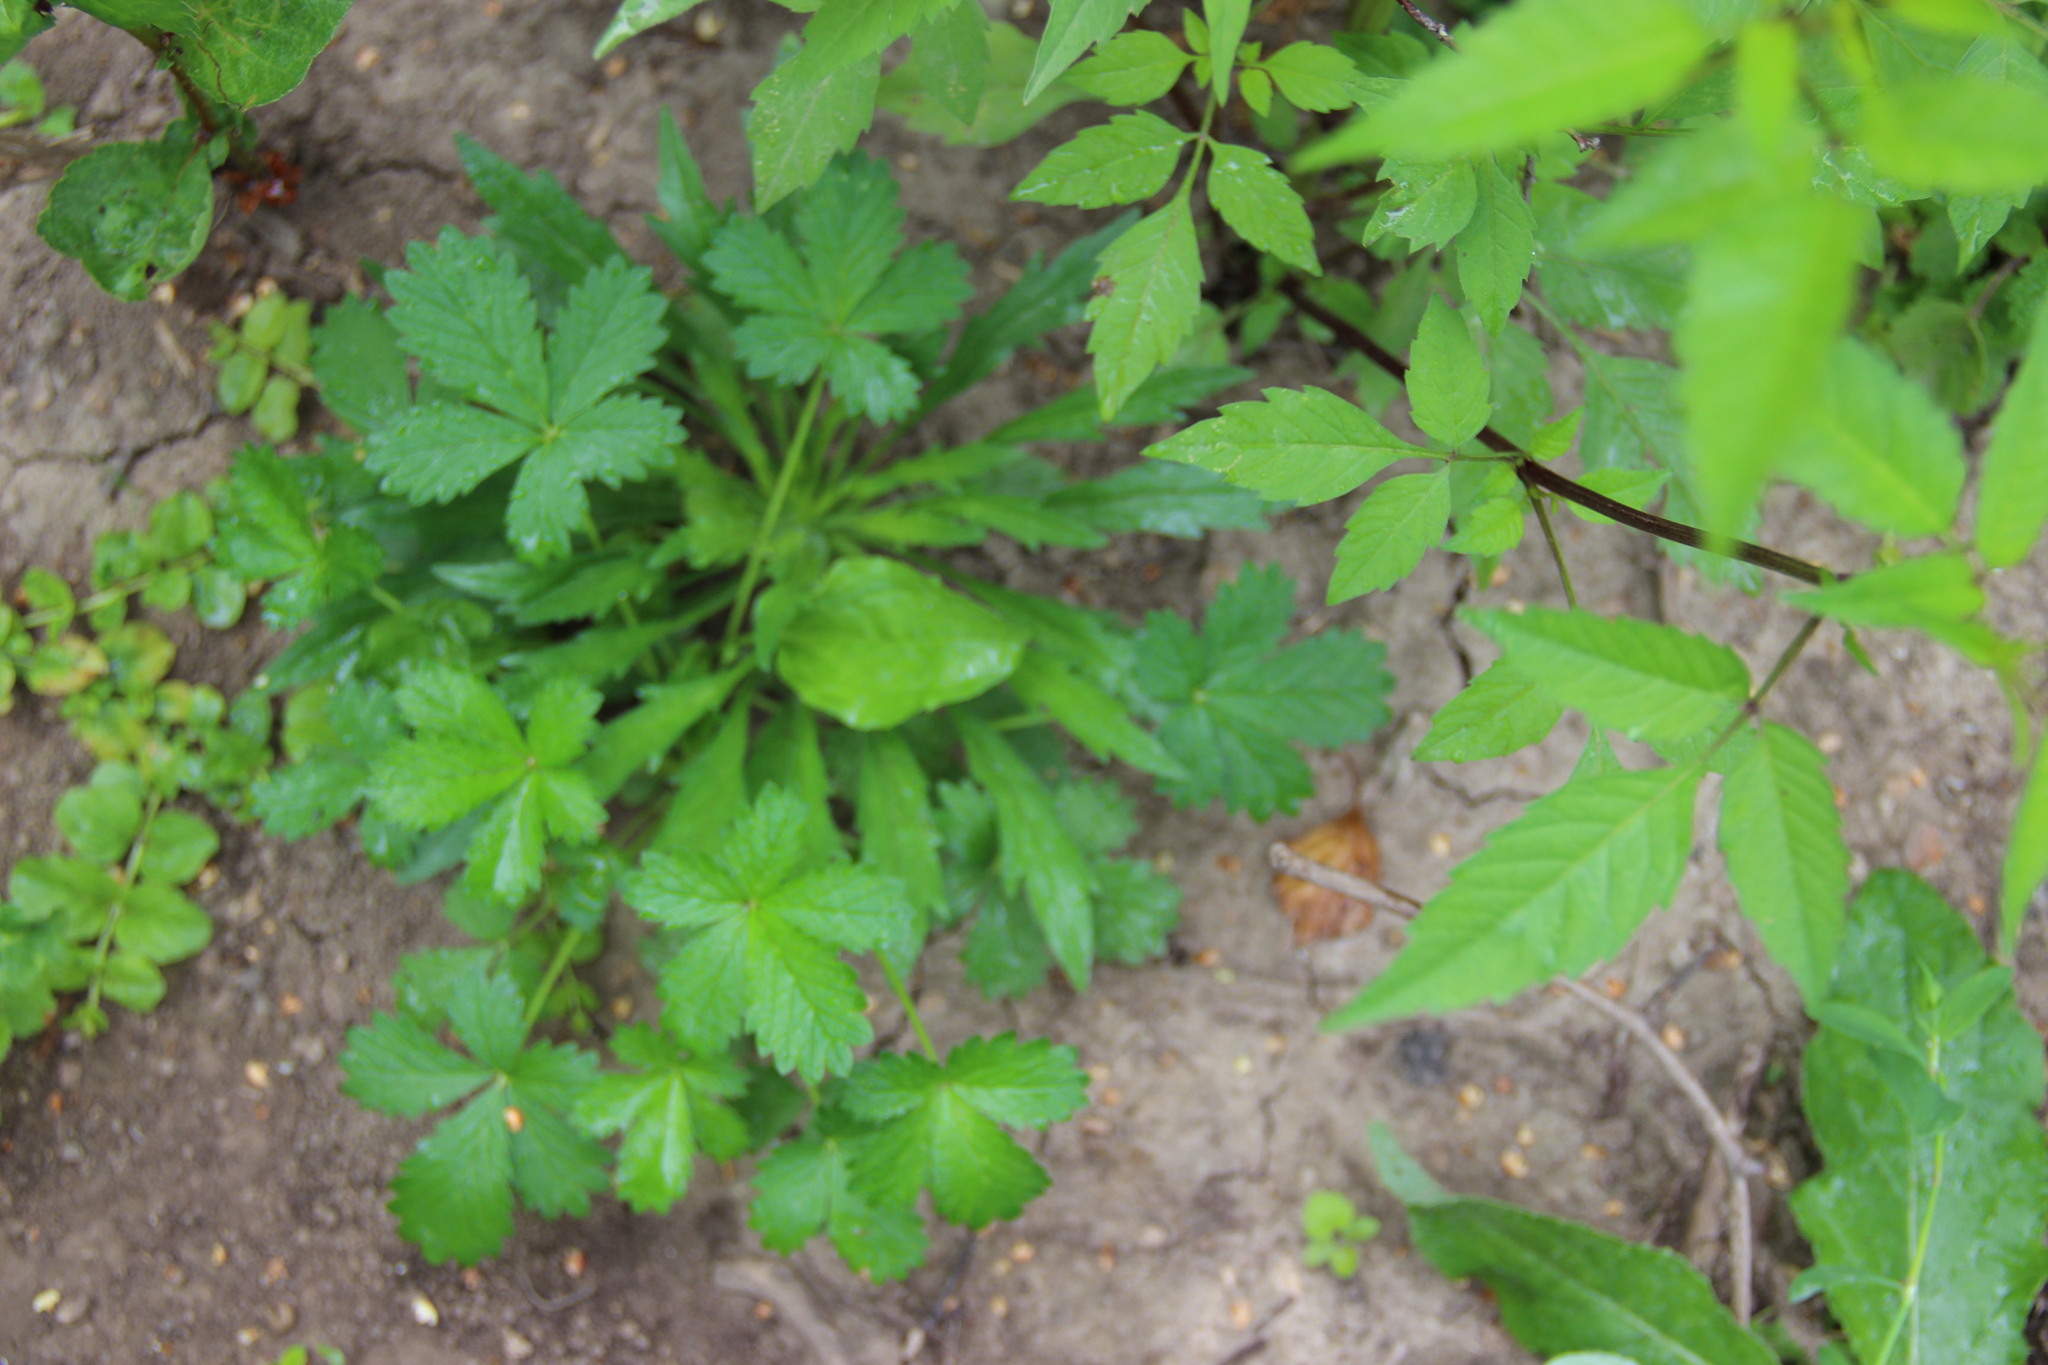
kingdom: Plantae
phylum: Tracheophyta
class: Magnoliopsida
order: Rosales
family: Rosaceae
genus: Potentilla
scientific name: Potentilla intermedia
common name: Downy cinquefoil
